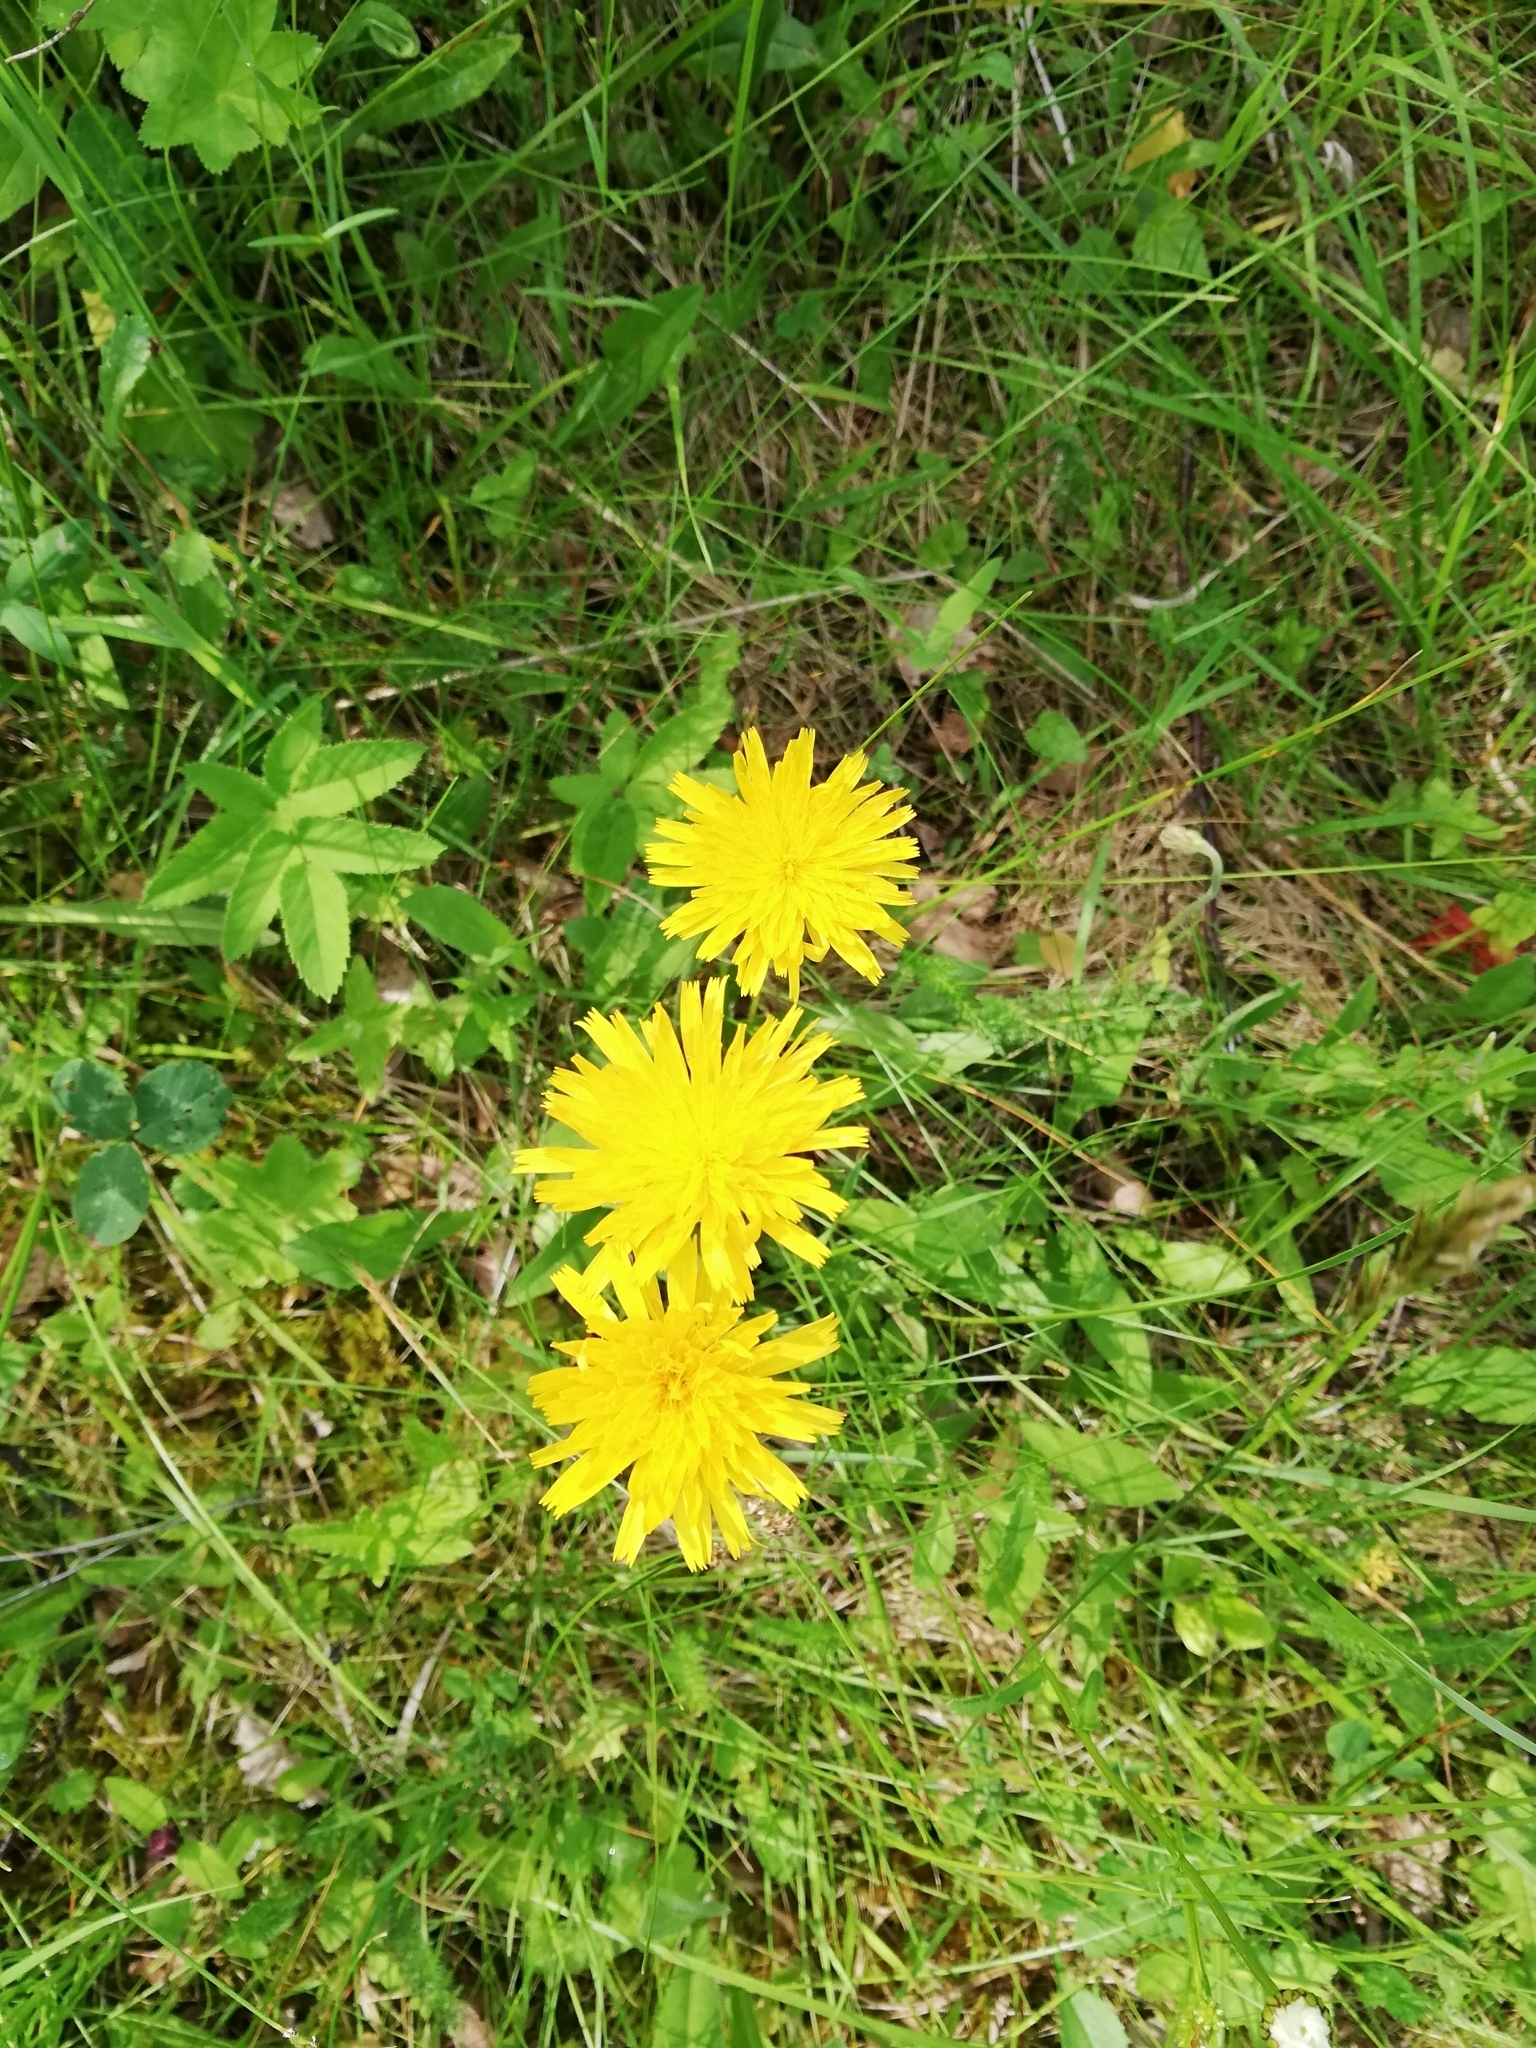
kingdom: Plantae
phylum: Tracheophyta
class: Magnoliopsida
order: Asterales
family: Asteraceae
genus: Leontodon
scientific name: Leontodon hispidus
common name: Rough hawkbit
